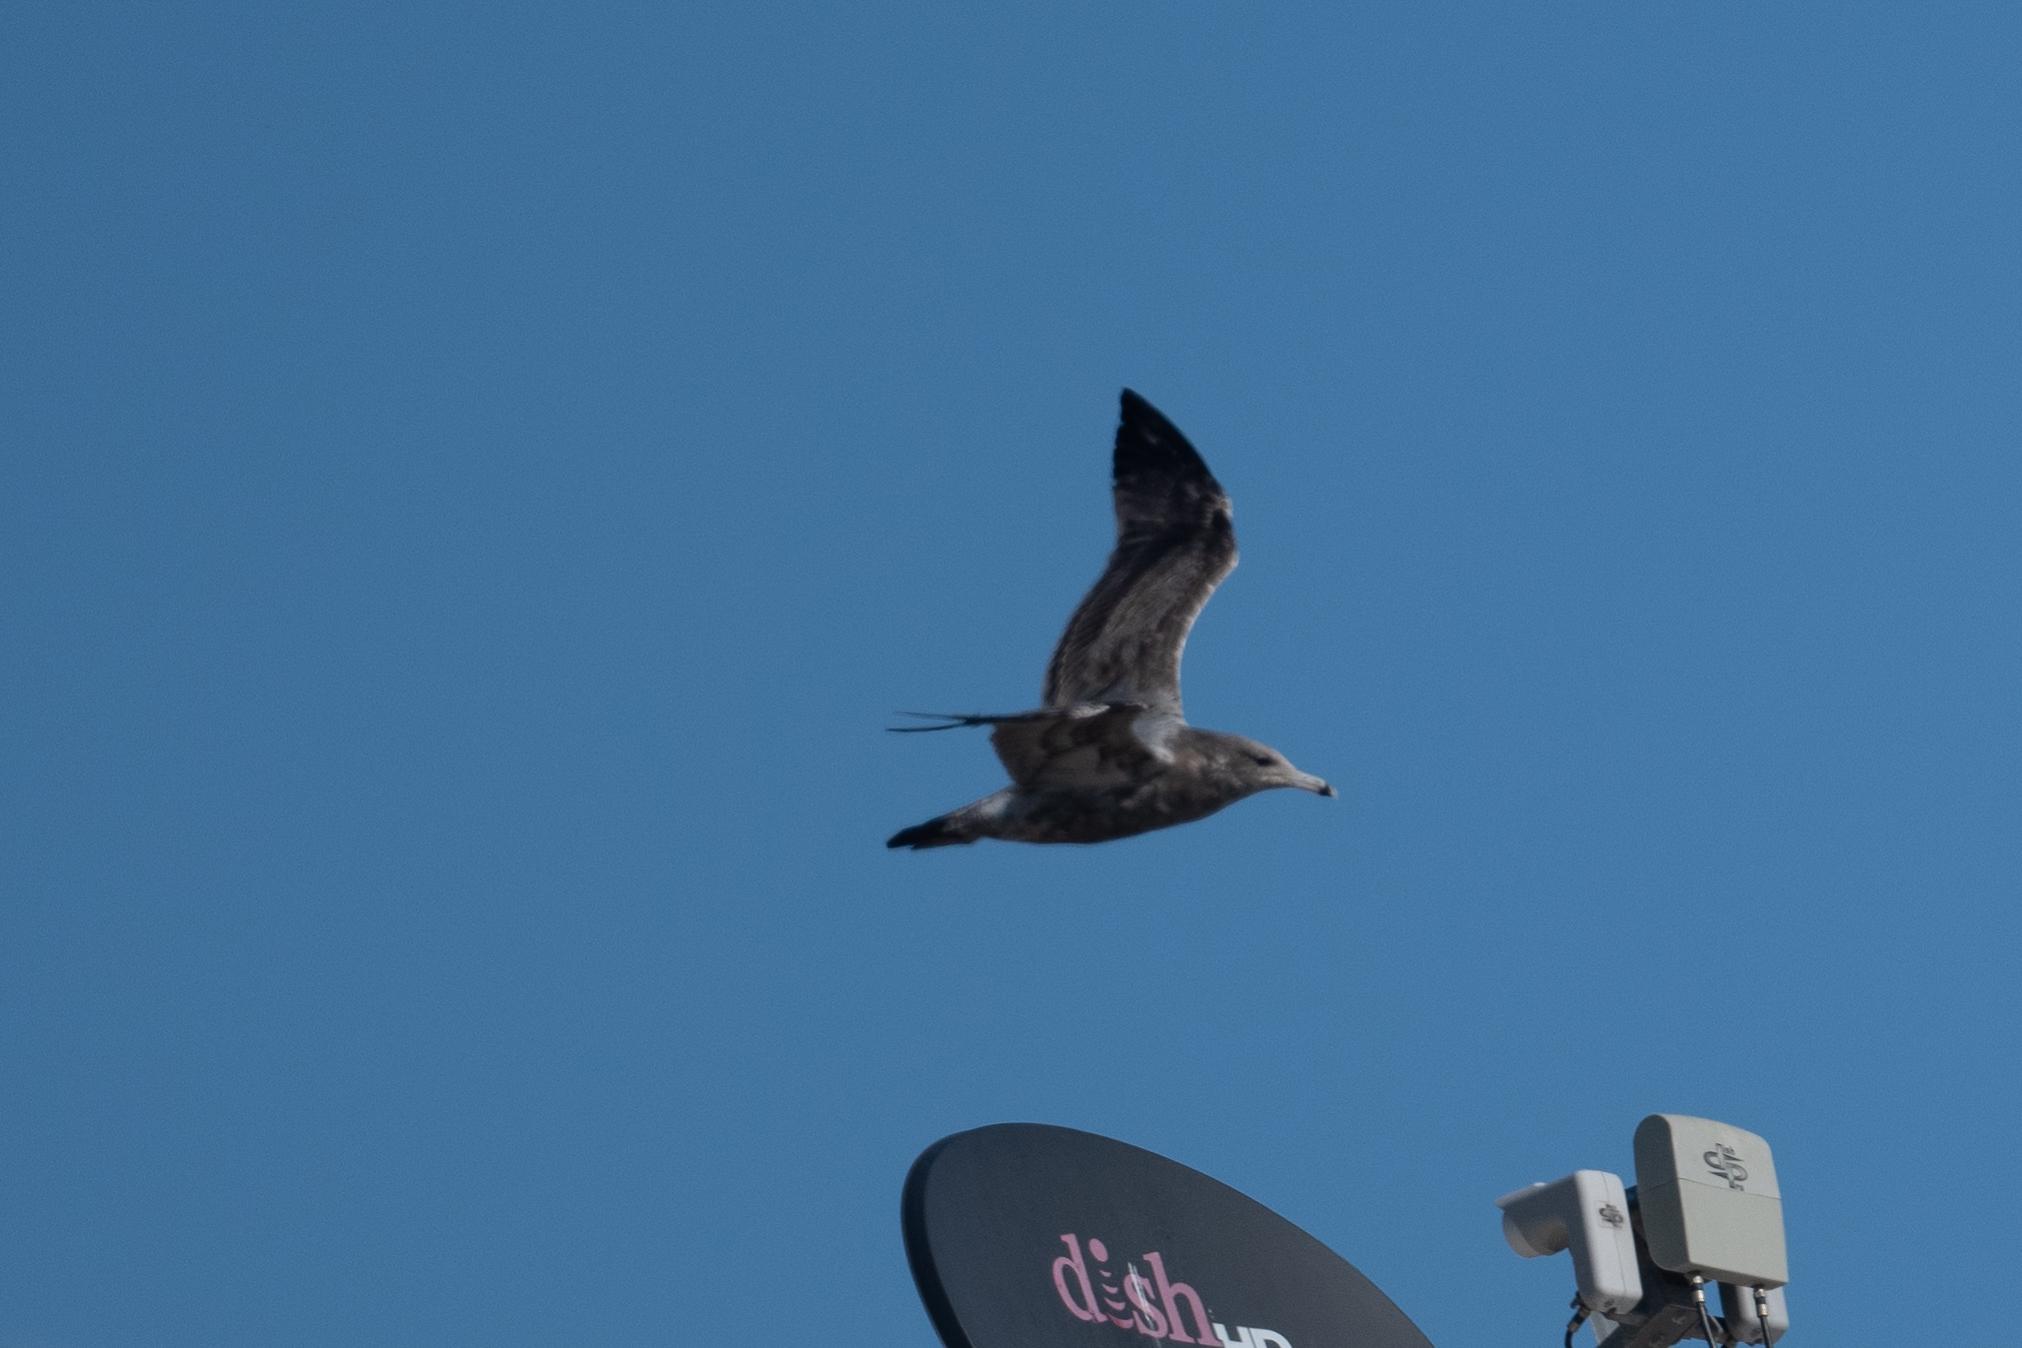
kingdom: Animalia
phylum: Chordata
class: Aves
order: Charadriiformes
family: Laridae
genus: Larus
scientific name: Larus californicus
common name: California gull
